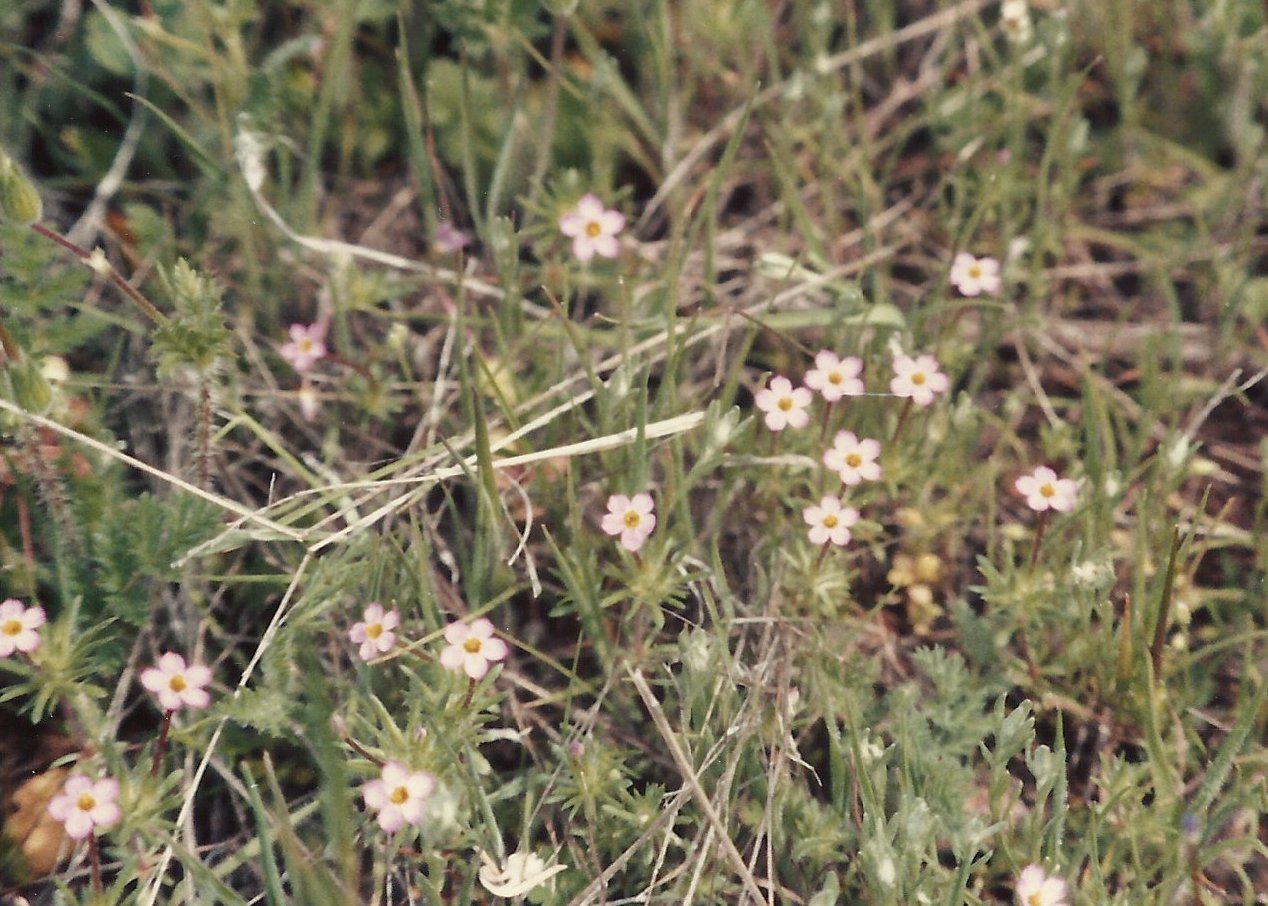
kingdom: Plantae
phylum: Tracheophyta
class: Magnoliopsida
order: Ericales
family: Polemoniaceae
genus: Leptosiphon
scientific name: Leptosiphon bicolor
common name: True babystars
